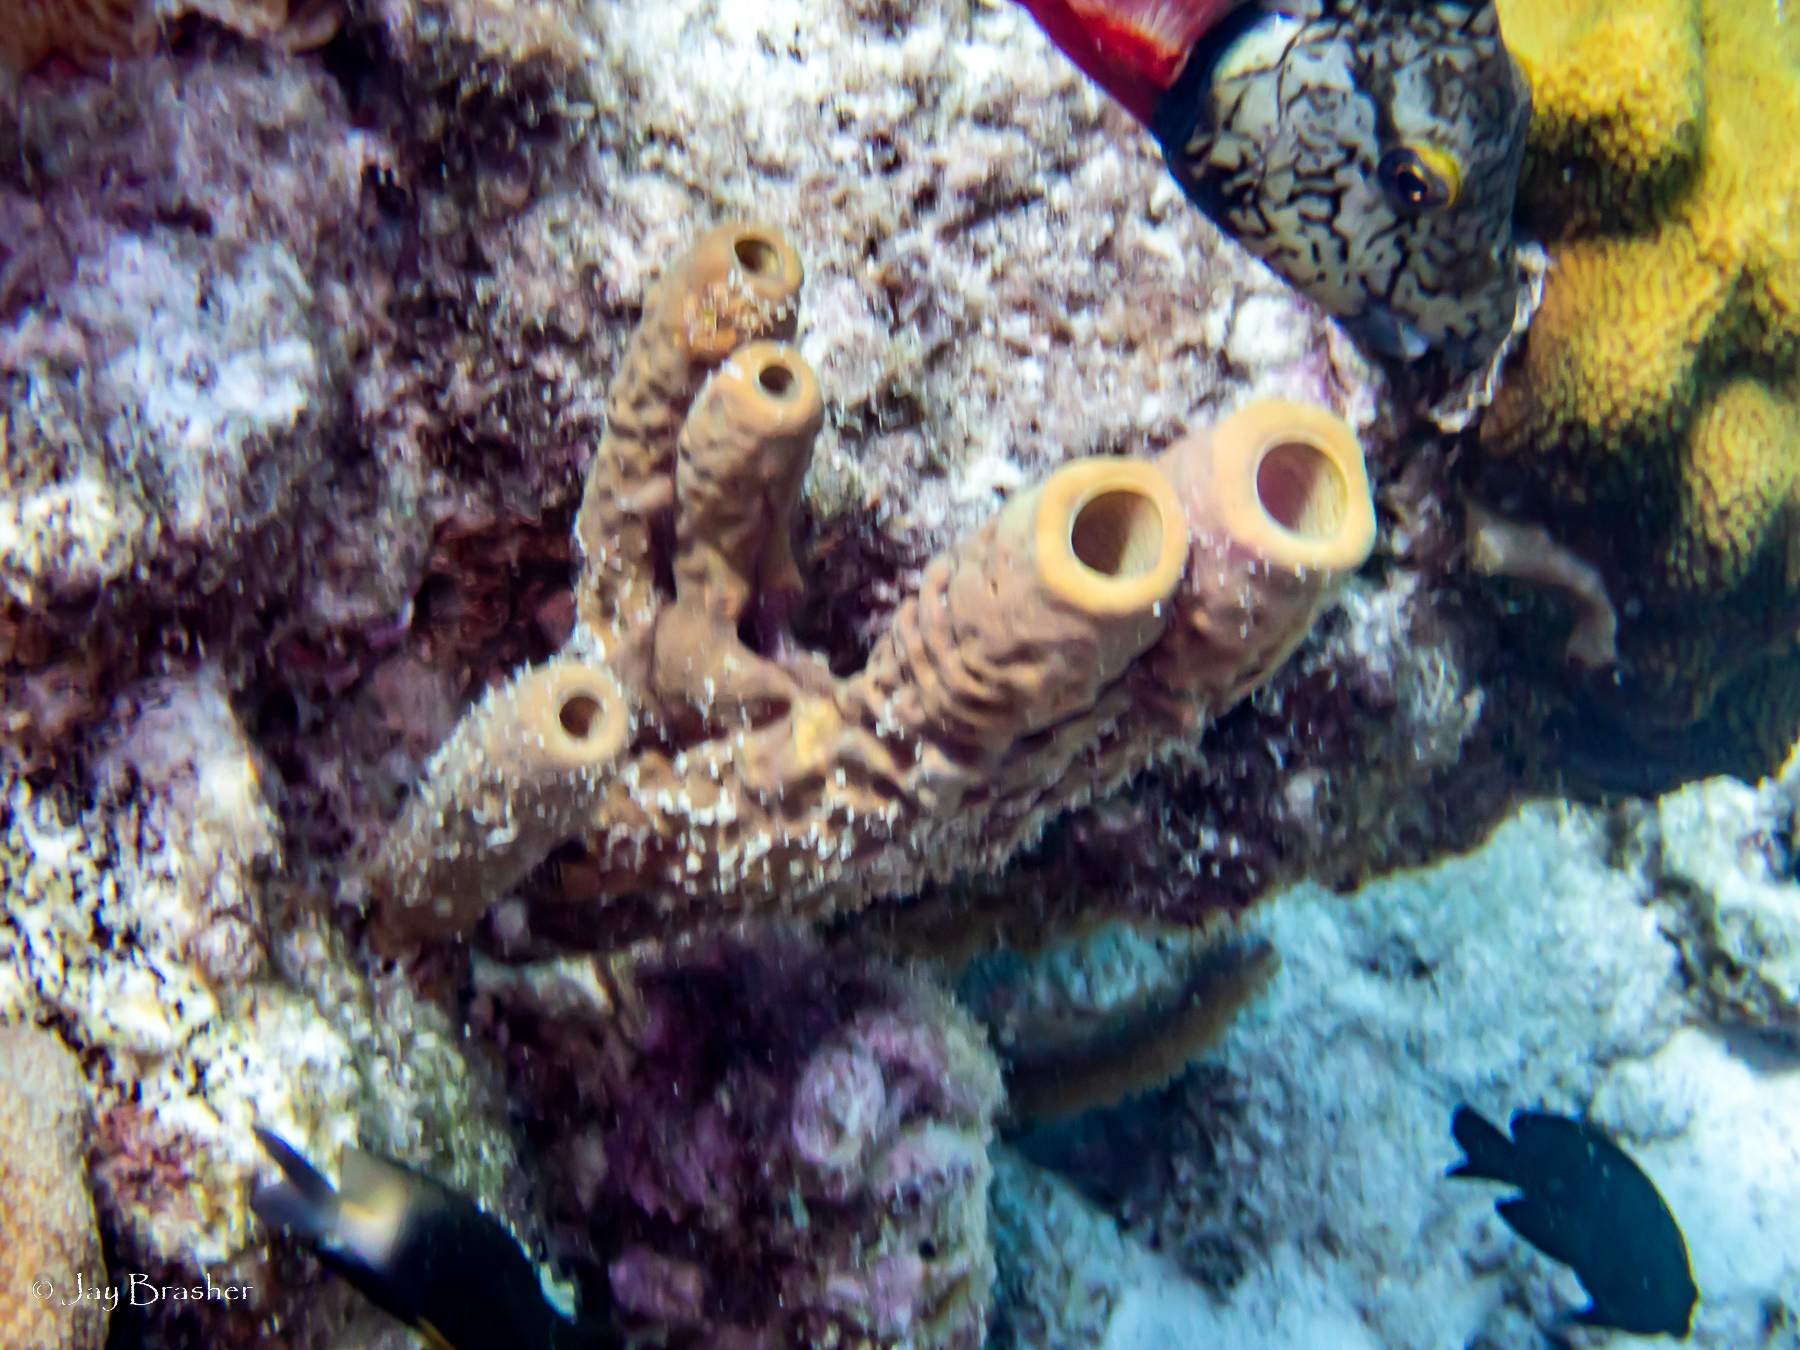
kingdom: Animalia
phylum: Porifera
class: Demospongiae
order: Verongiida
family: Aplysinidae
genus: Aplysina
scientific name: Aplysina archeri
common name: Stove-pipe sponge
